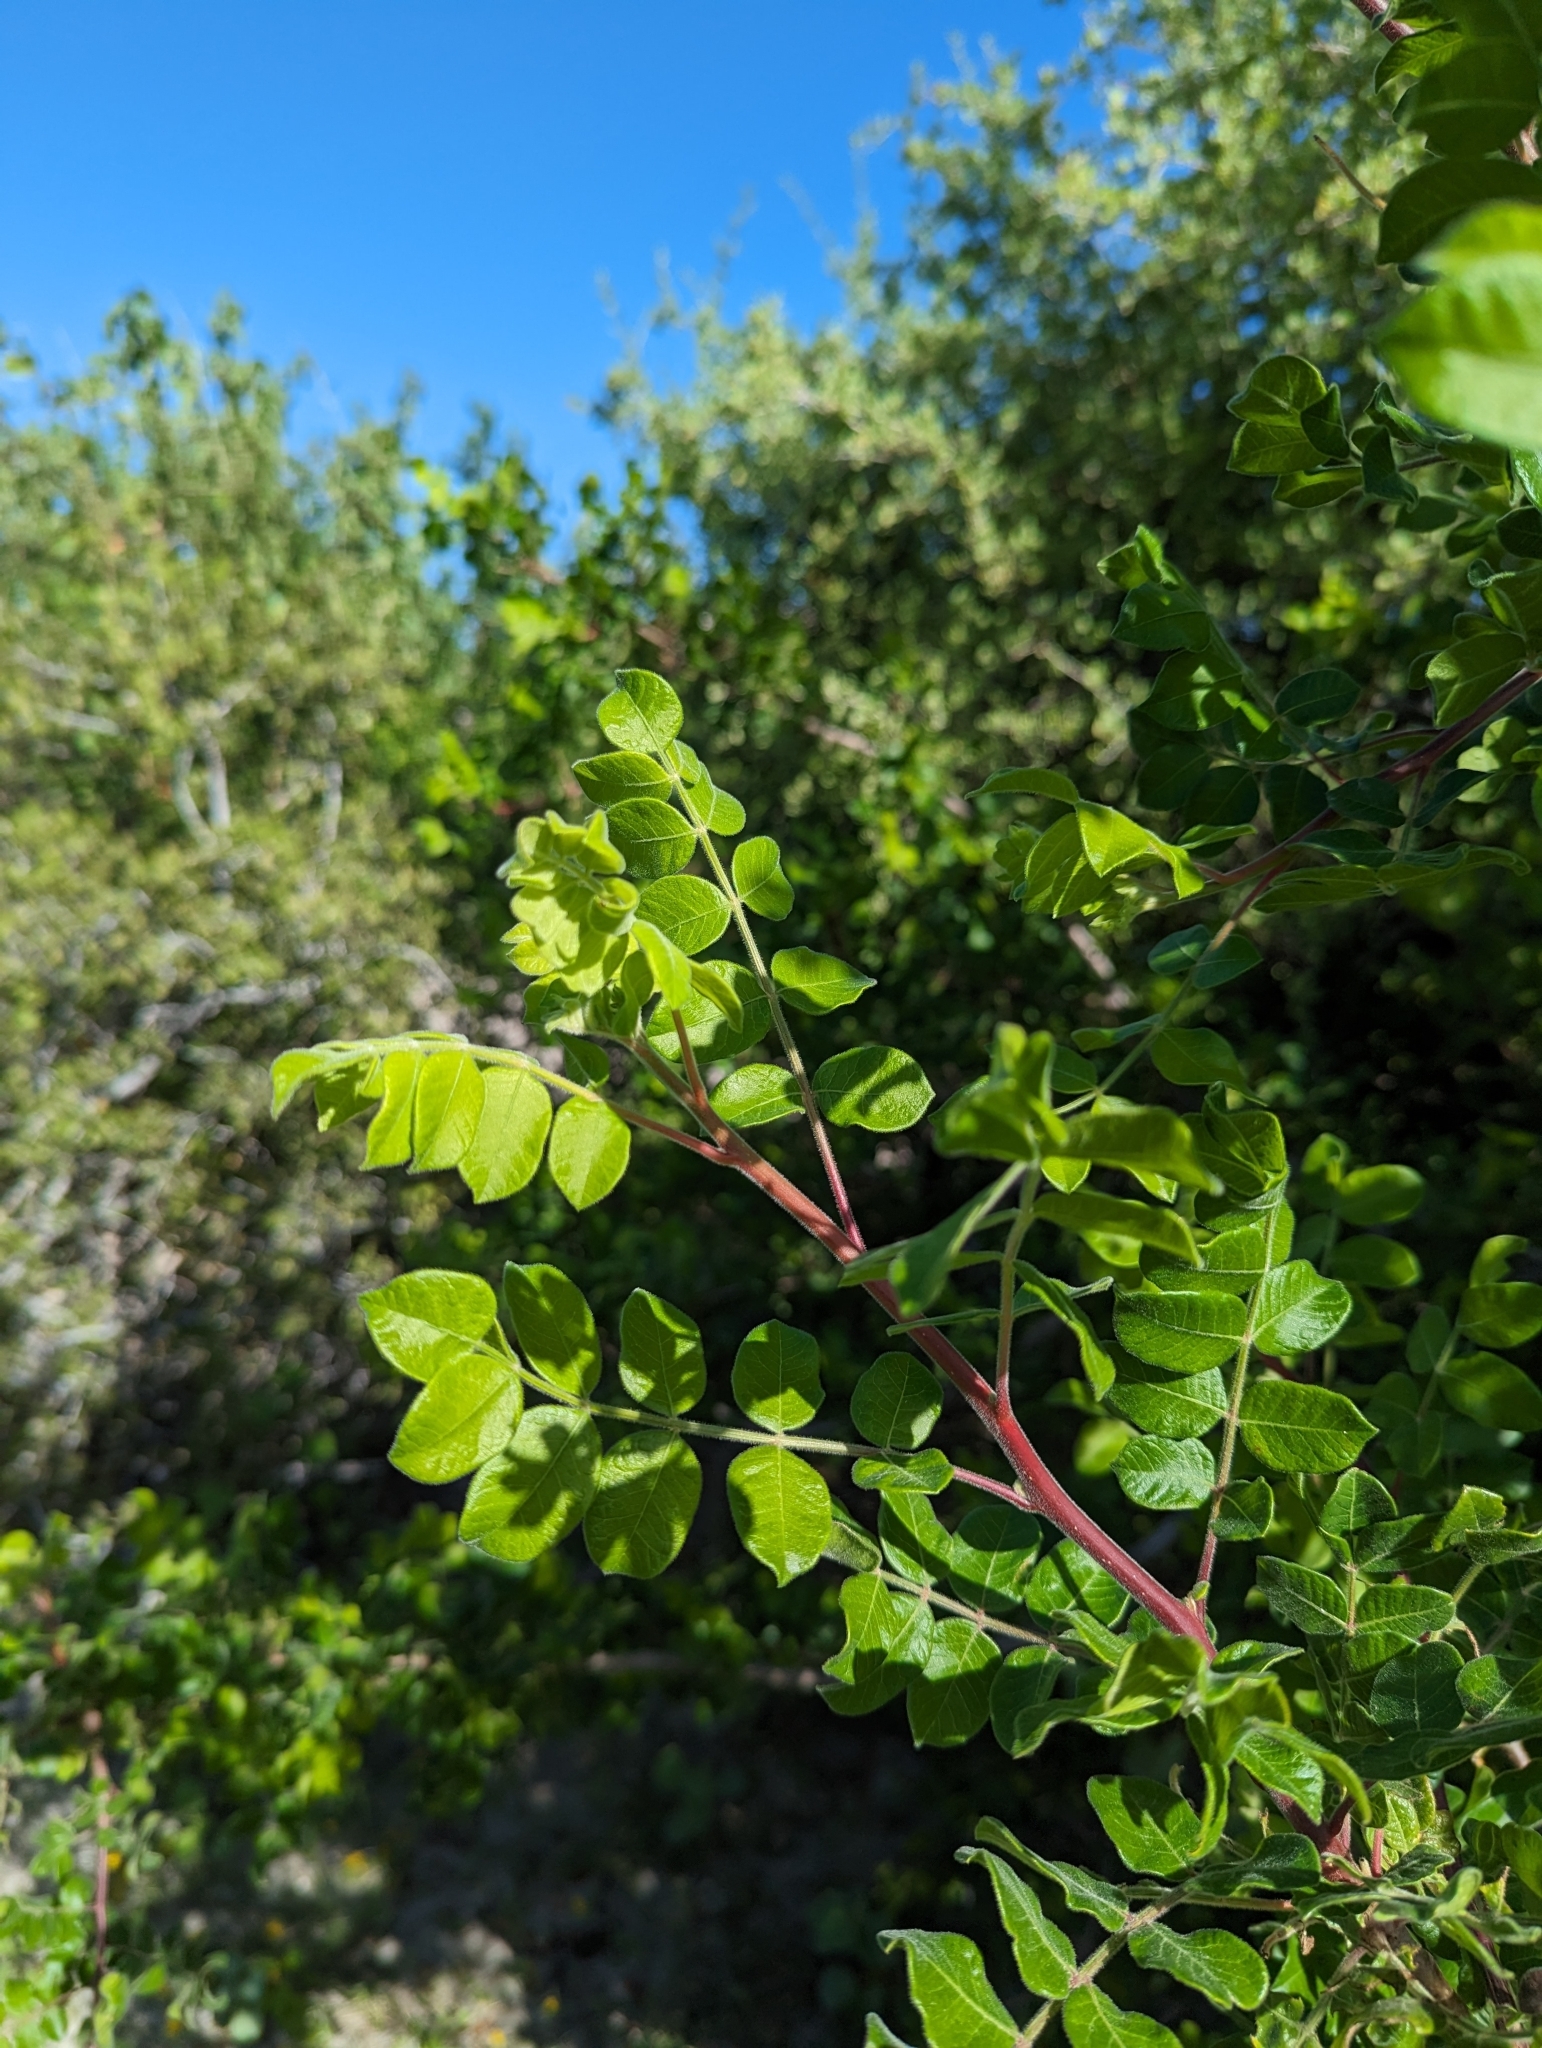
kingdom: Plantae
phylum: Tracheophyta
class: Magnoliopsida
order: Sapindales
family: Anacardiaceae
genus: Cyrtocarpa
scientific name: Cyrtocarpa edulis
